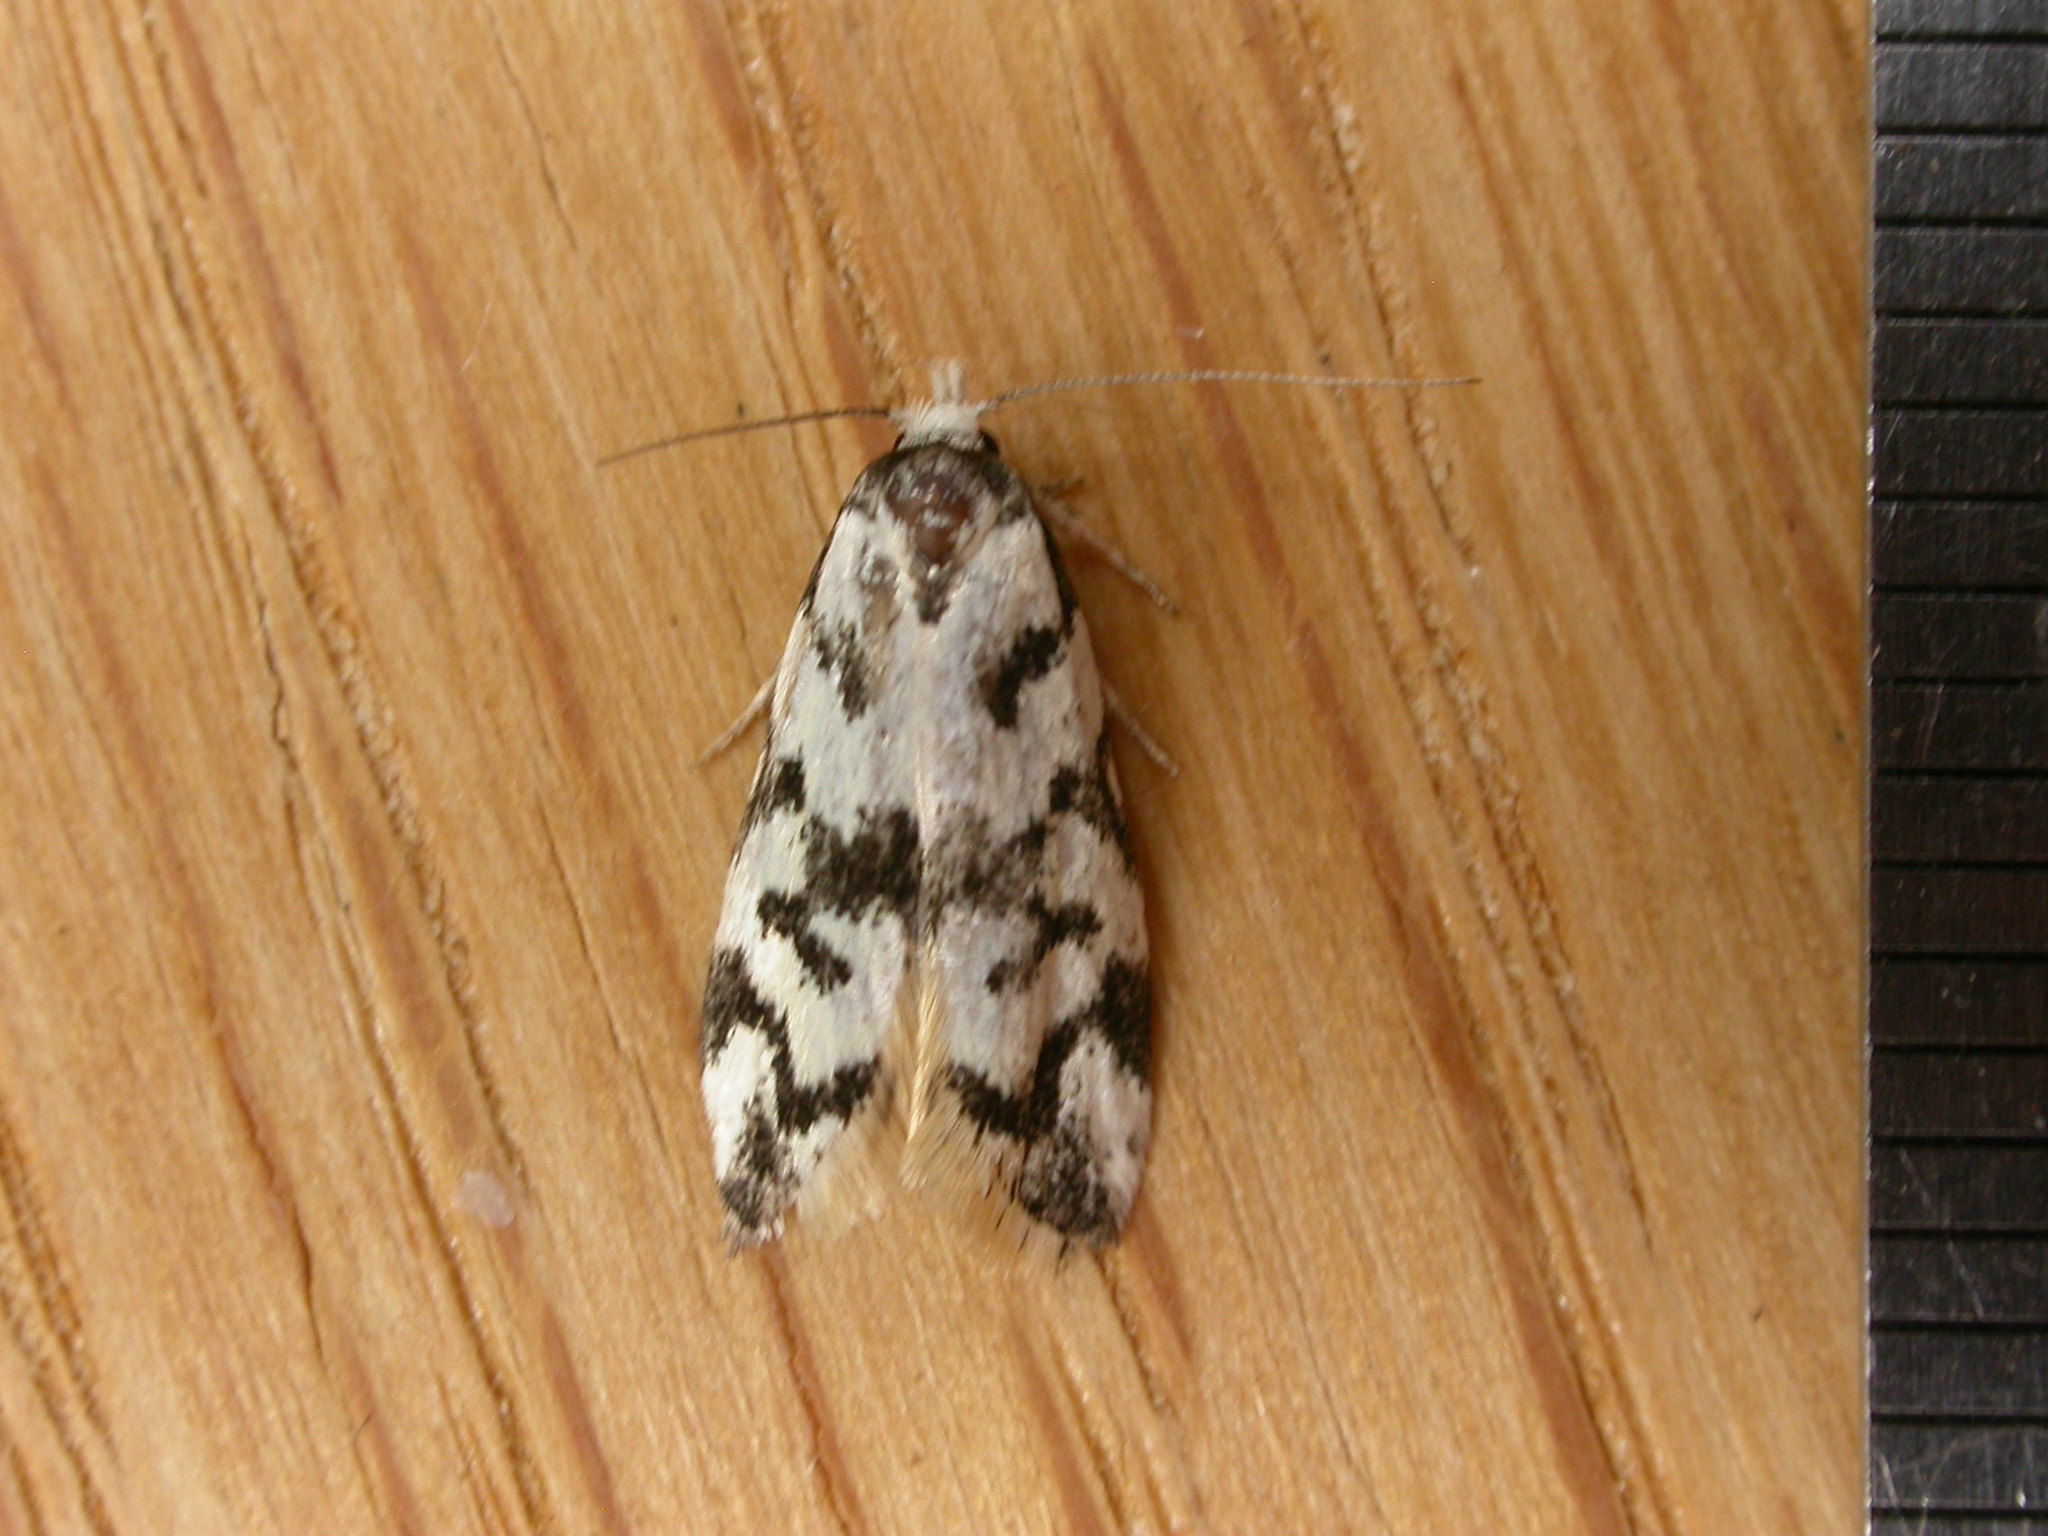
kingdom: Animalia
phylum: Arthropoda
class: Insecta
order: Lepidoptera
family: Oecophoridae
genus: Cosmaresta
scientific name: Cosmaresta charaxias
